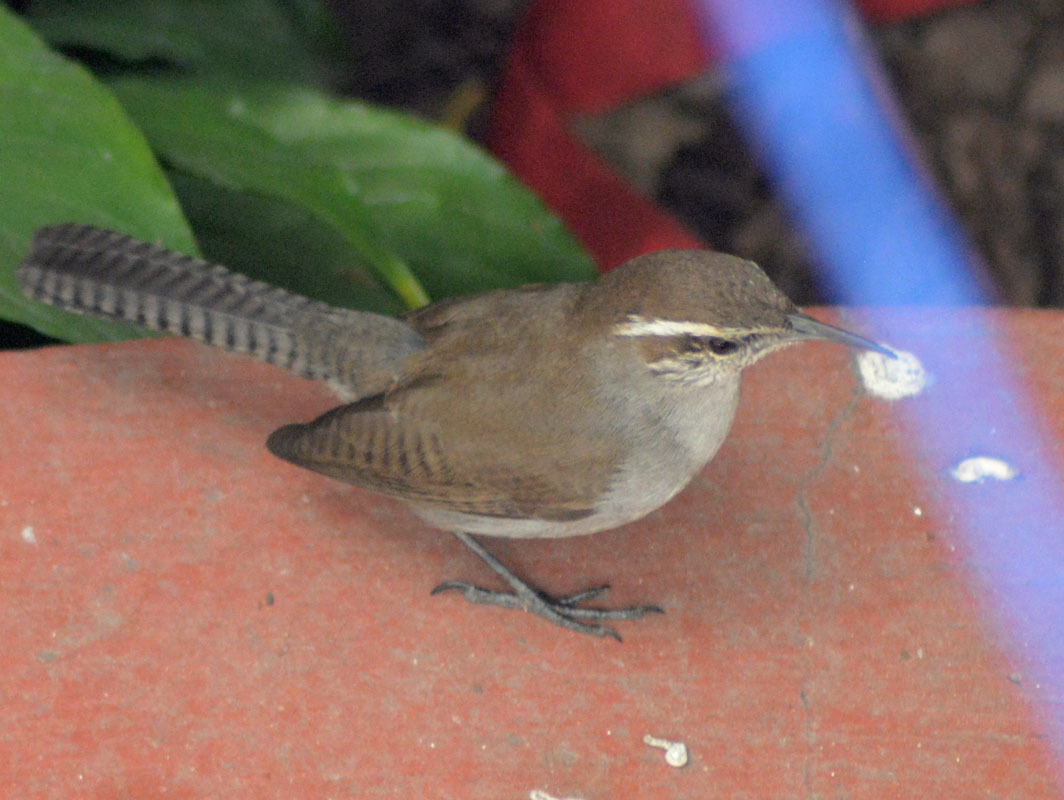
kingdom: Animalia
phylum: Chordata
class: Aves
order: Passeriformes
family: Troglodytidae
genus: Thryomanes
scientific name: Thryomanes bewickii
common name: Bewick's wren
